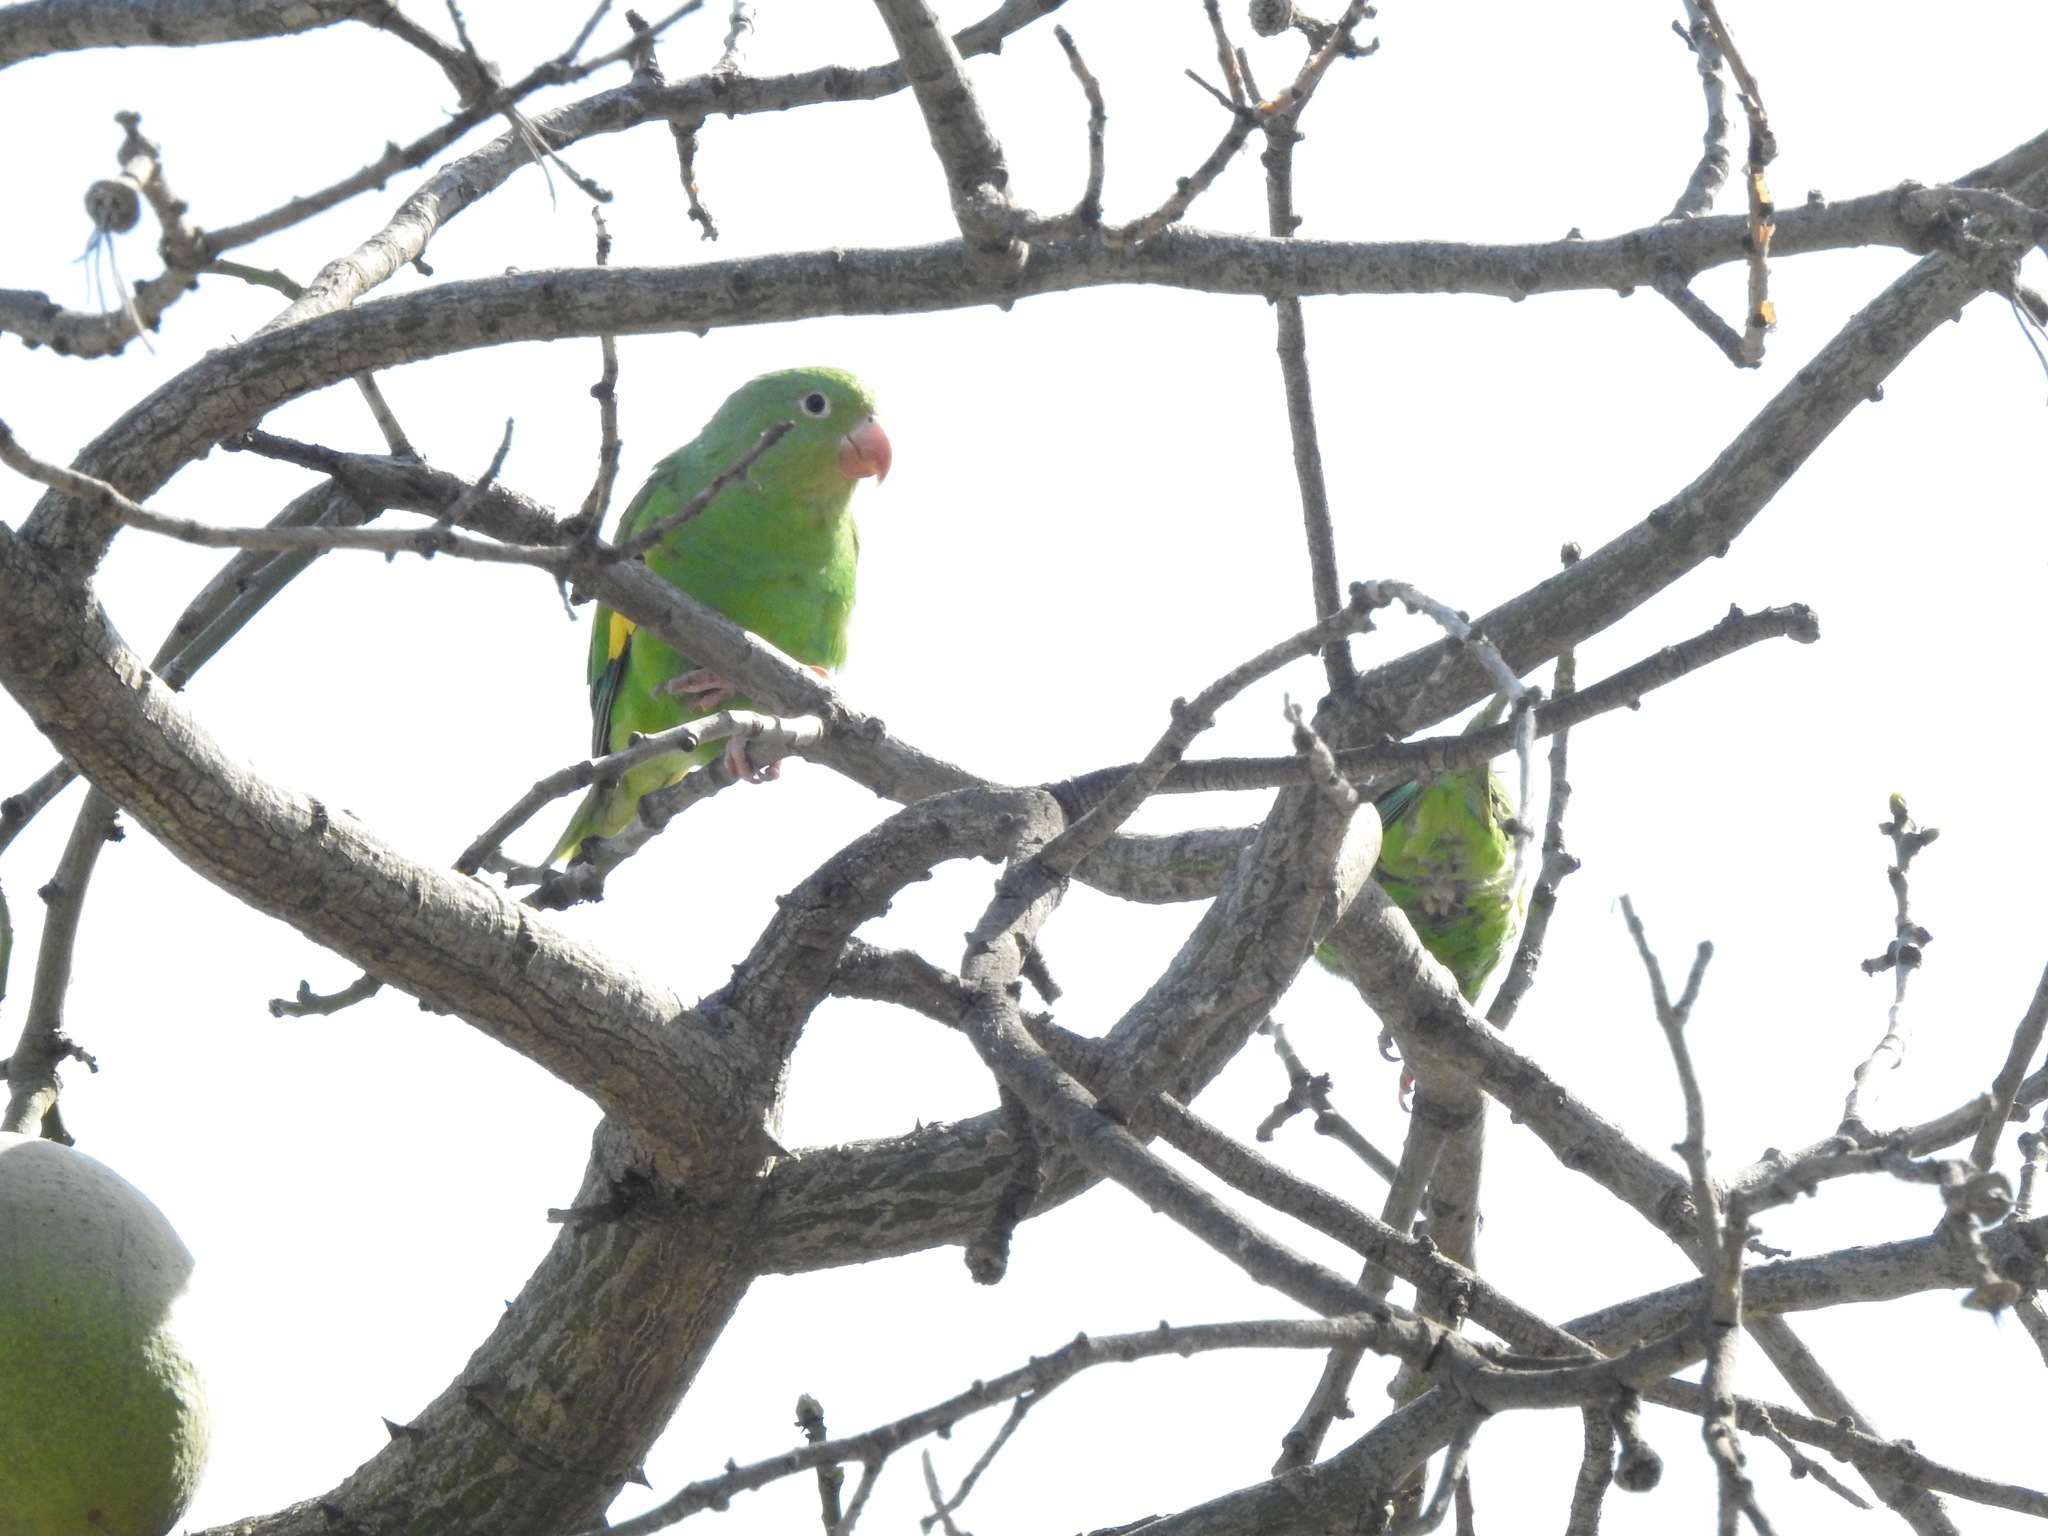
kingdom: Animalia
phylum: Chordata
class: Aves
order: Psittaciformes
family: Psittacidae
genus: Brotogeris
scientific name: Brotogeris chiriri
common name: Yellow-chevroned parakeet
